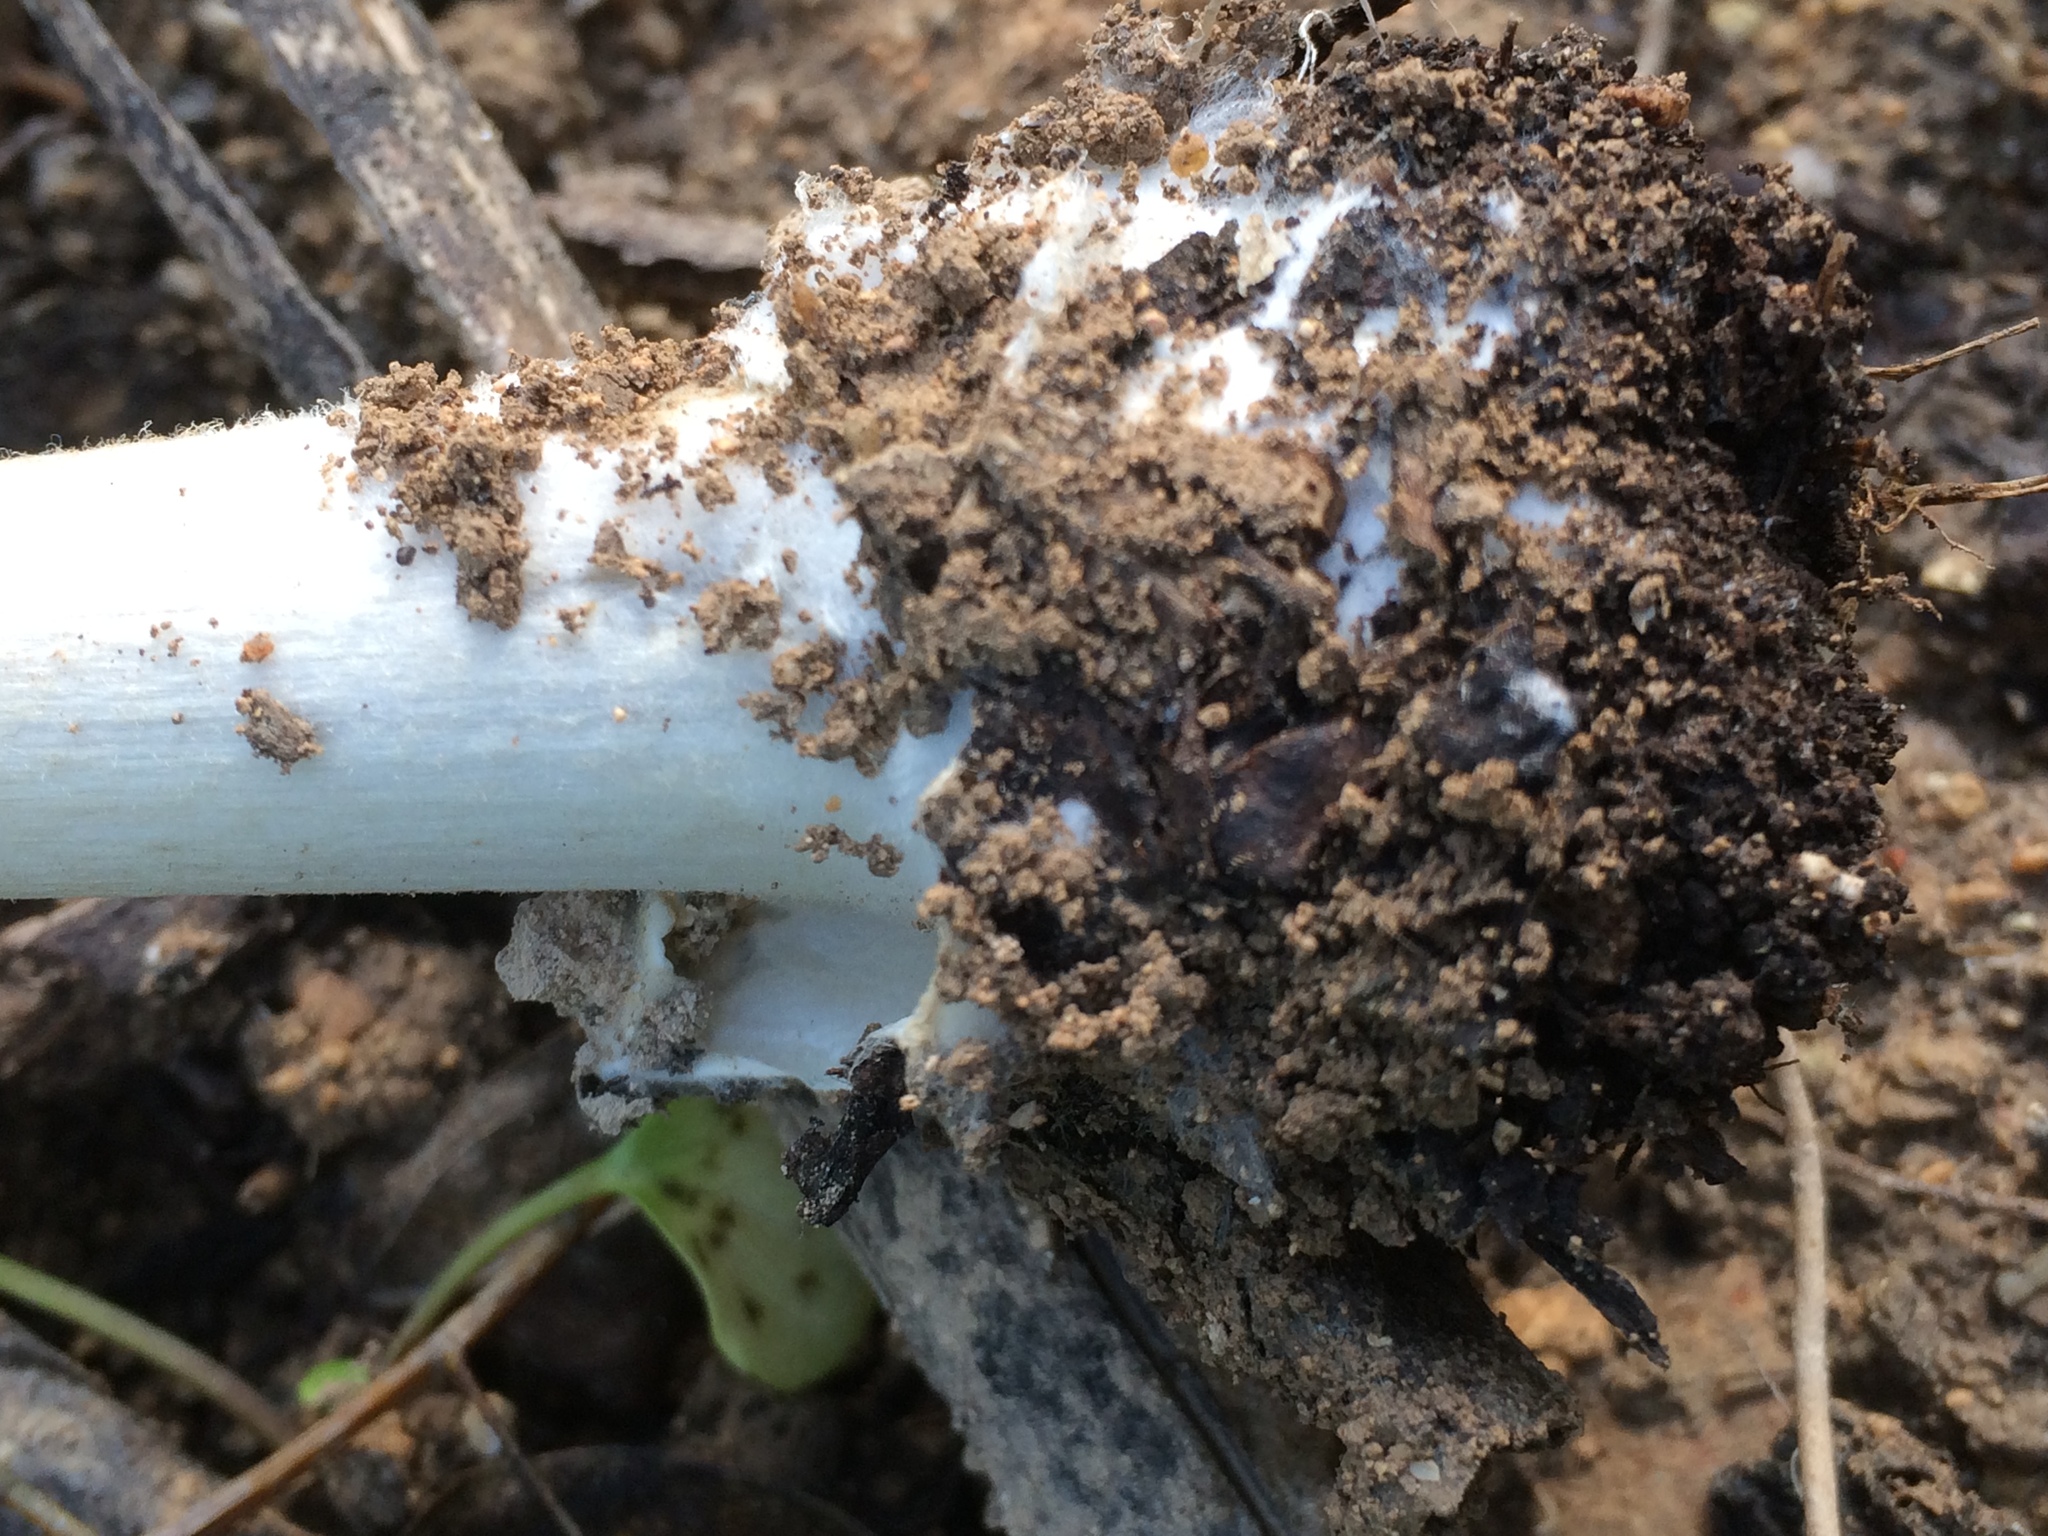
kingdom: Fungi
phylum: Basidiomycota
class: Agaricomycetes
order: Agaricales
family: Pluteaceae
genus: Volvopluteus
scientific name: Volvopluteus gloiocephalus
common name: Stubble rosegill
